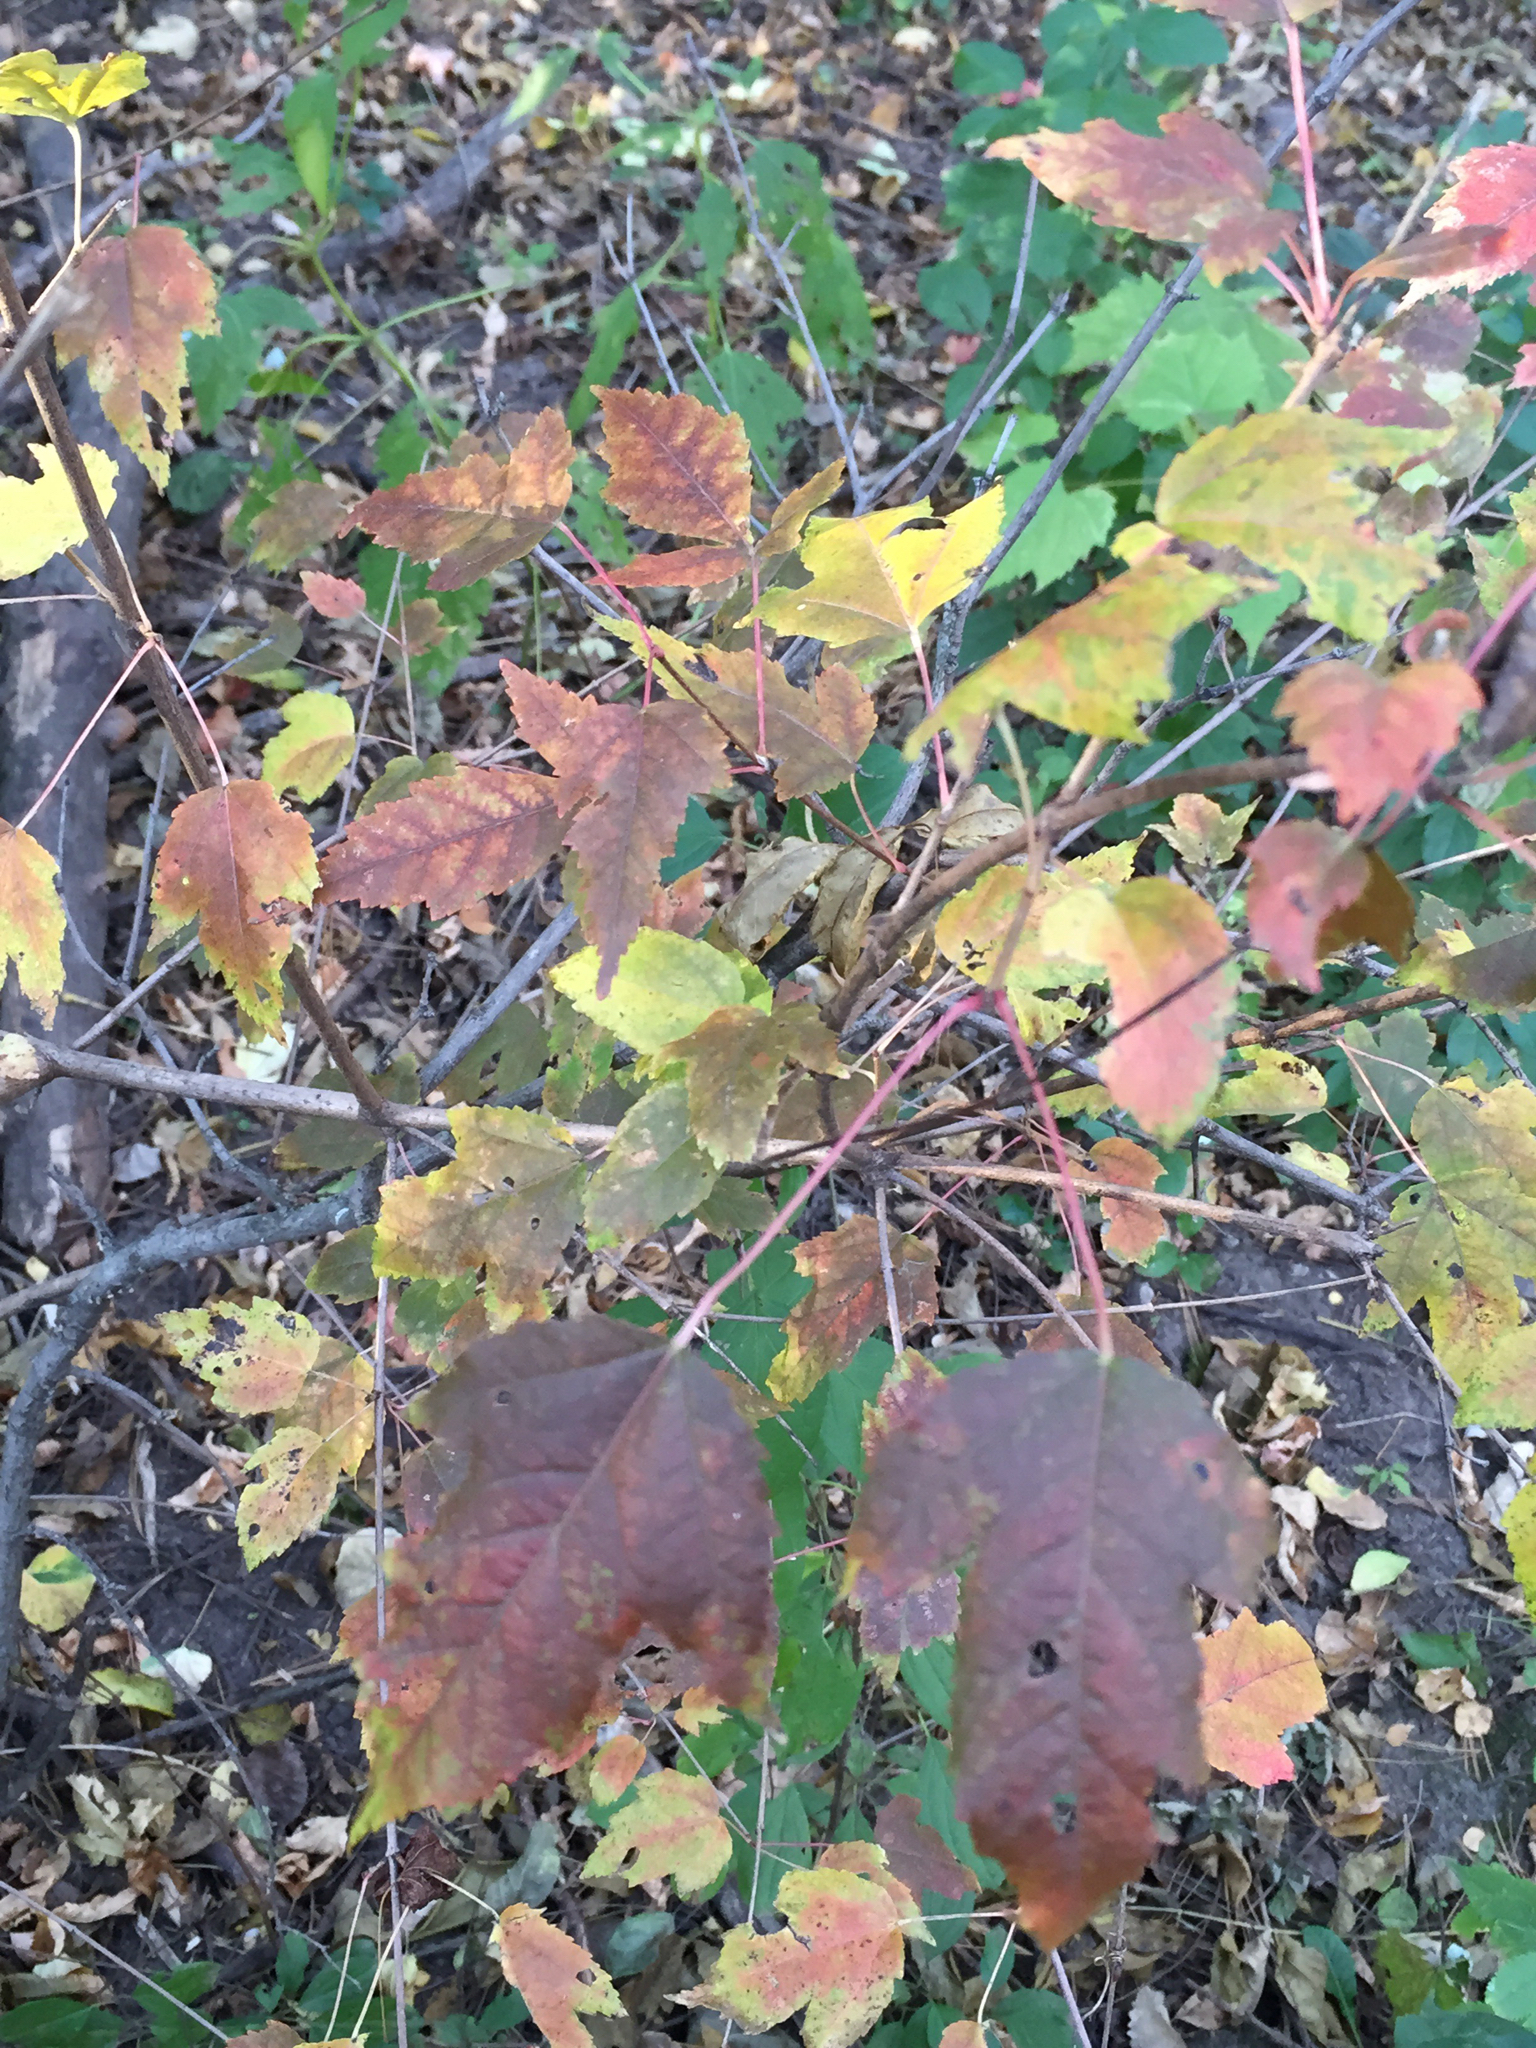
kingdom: Plantae
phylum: Tracheophyta
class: Magnoliopsida
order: Sapindales
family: Sapindaceae
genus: Acer
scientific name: Acer tataricum
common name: Tartar maple
